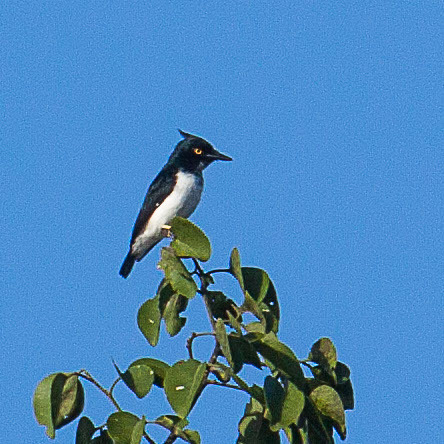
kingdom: Animalia
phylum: Chordata
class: Aves
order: Passeriformes
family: Platysteiridae
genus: Bias
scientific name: Bias musicus
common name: Black-and-white shrike-flycatcher
